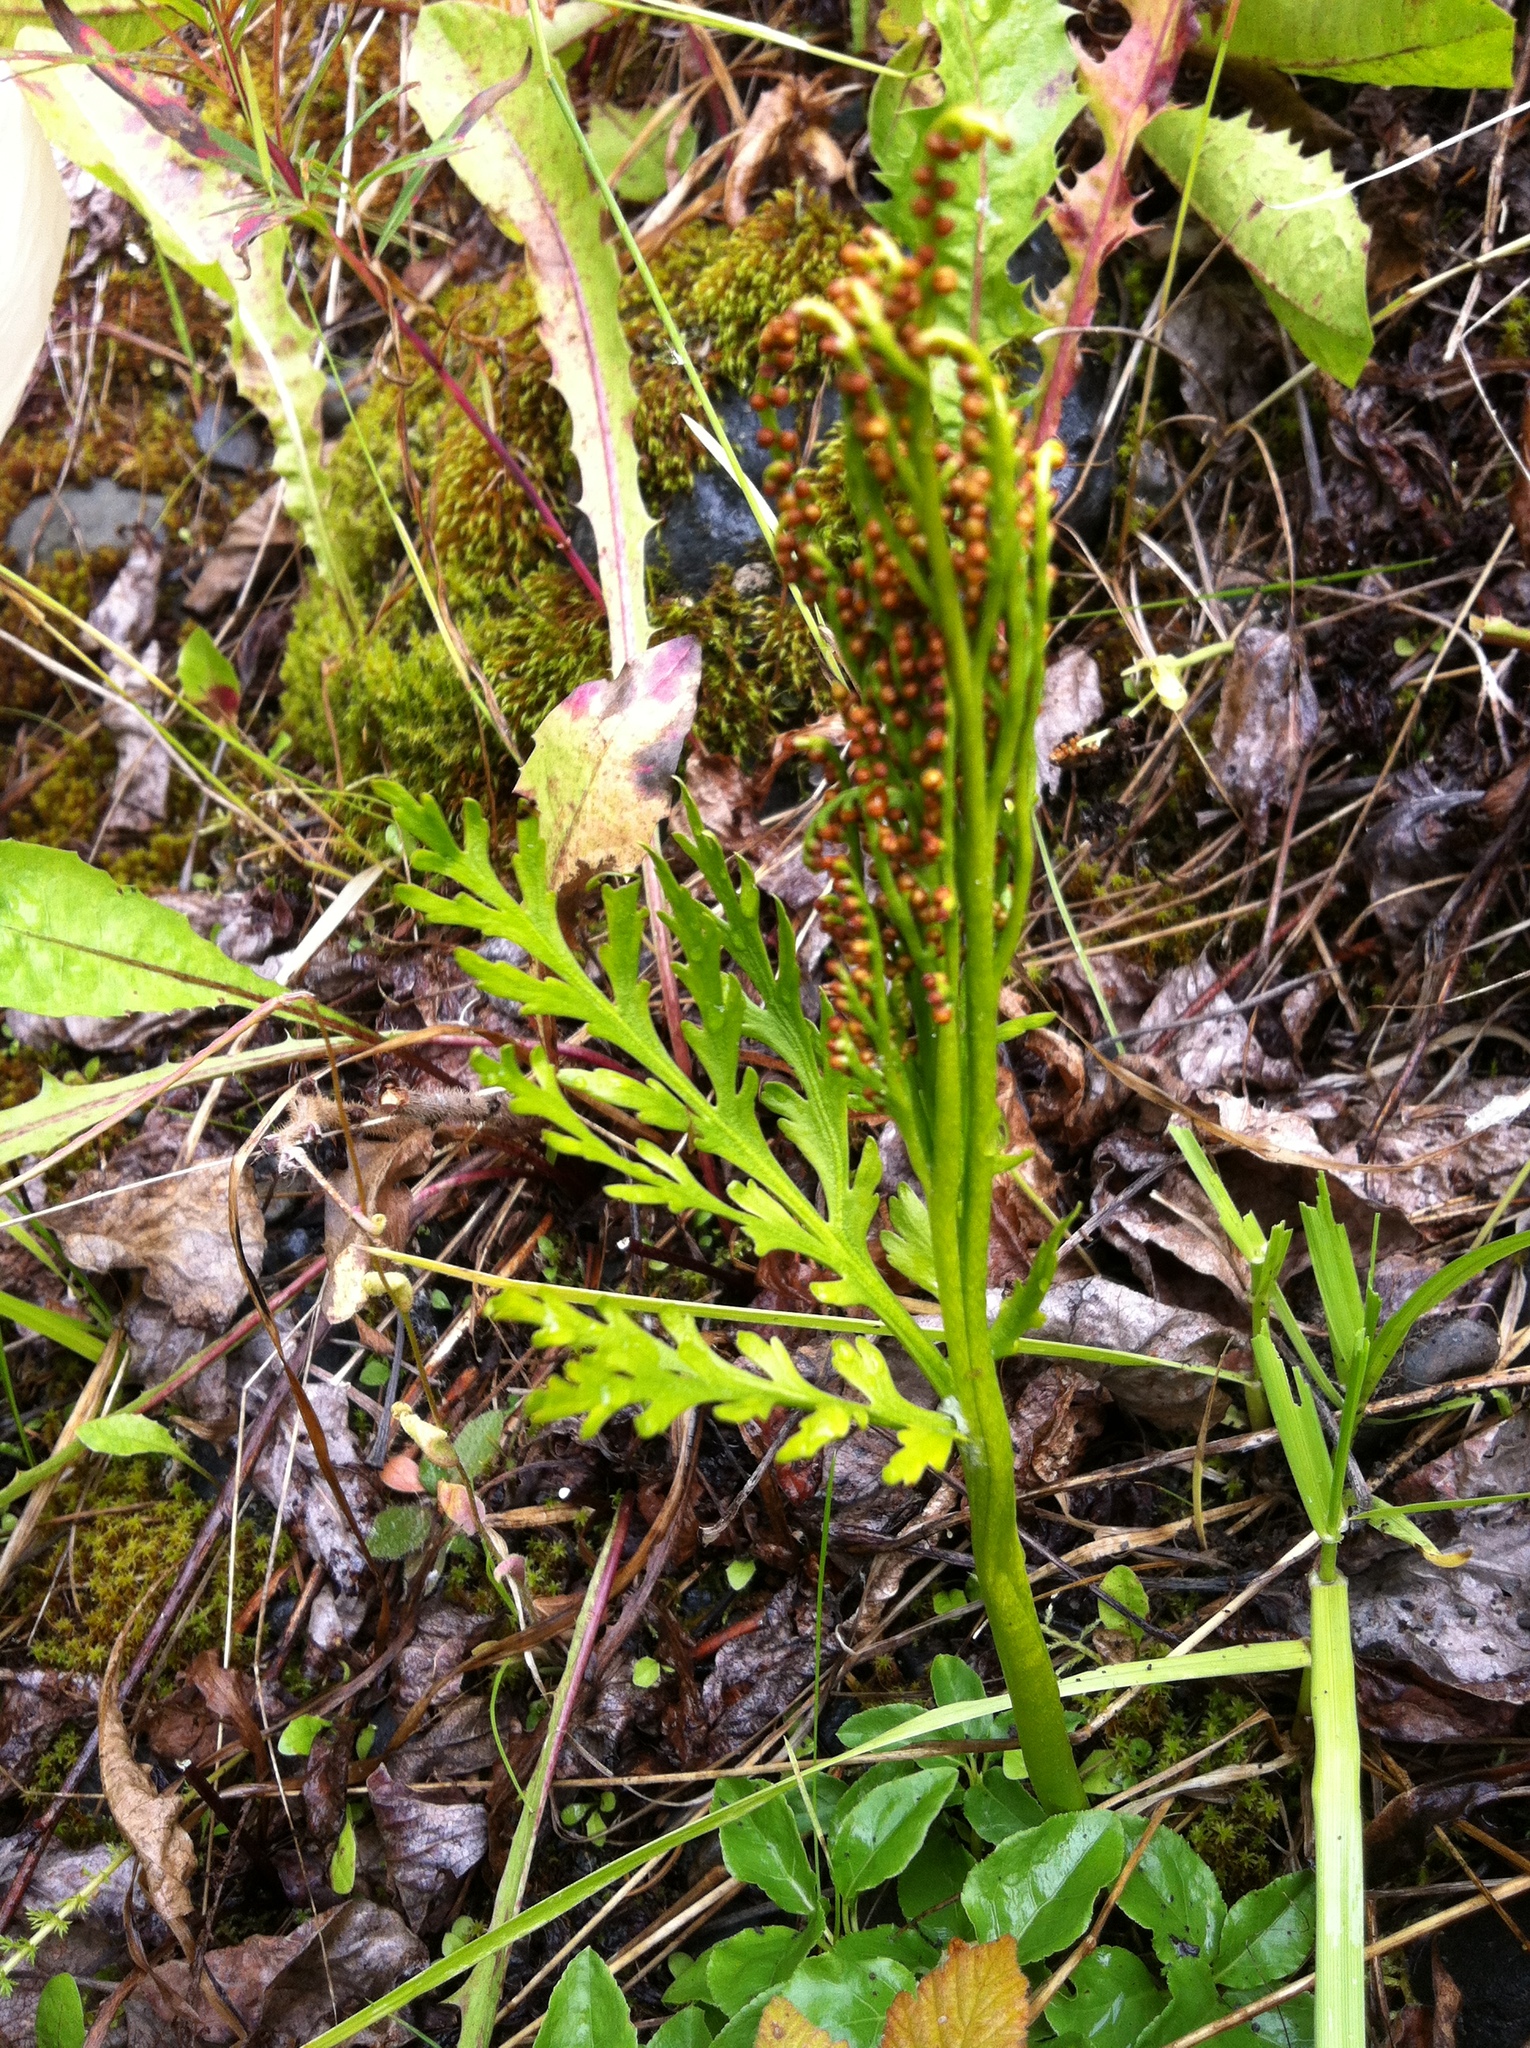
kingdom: Plantae
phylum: Tracheophyta
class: Polypodiopsida
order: Ophioglossales
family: Ophioglossaceae
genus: Botrychium
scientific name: Botrychium lanceolatum
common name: Lance-leaved moonwort
